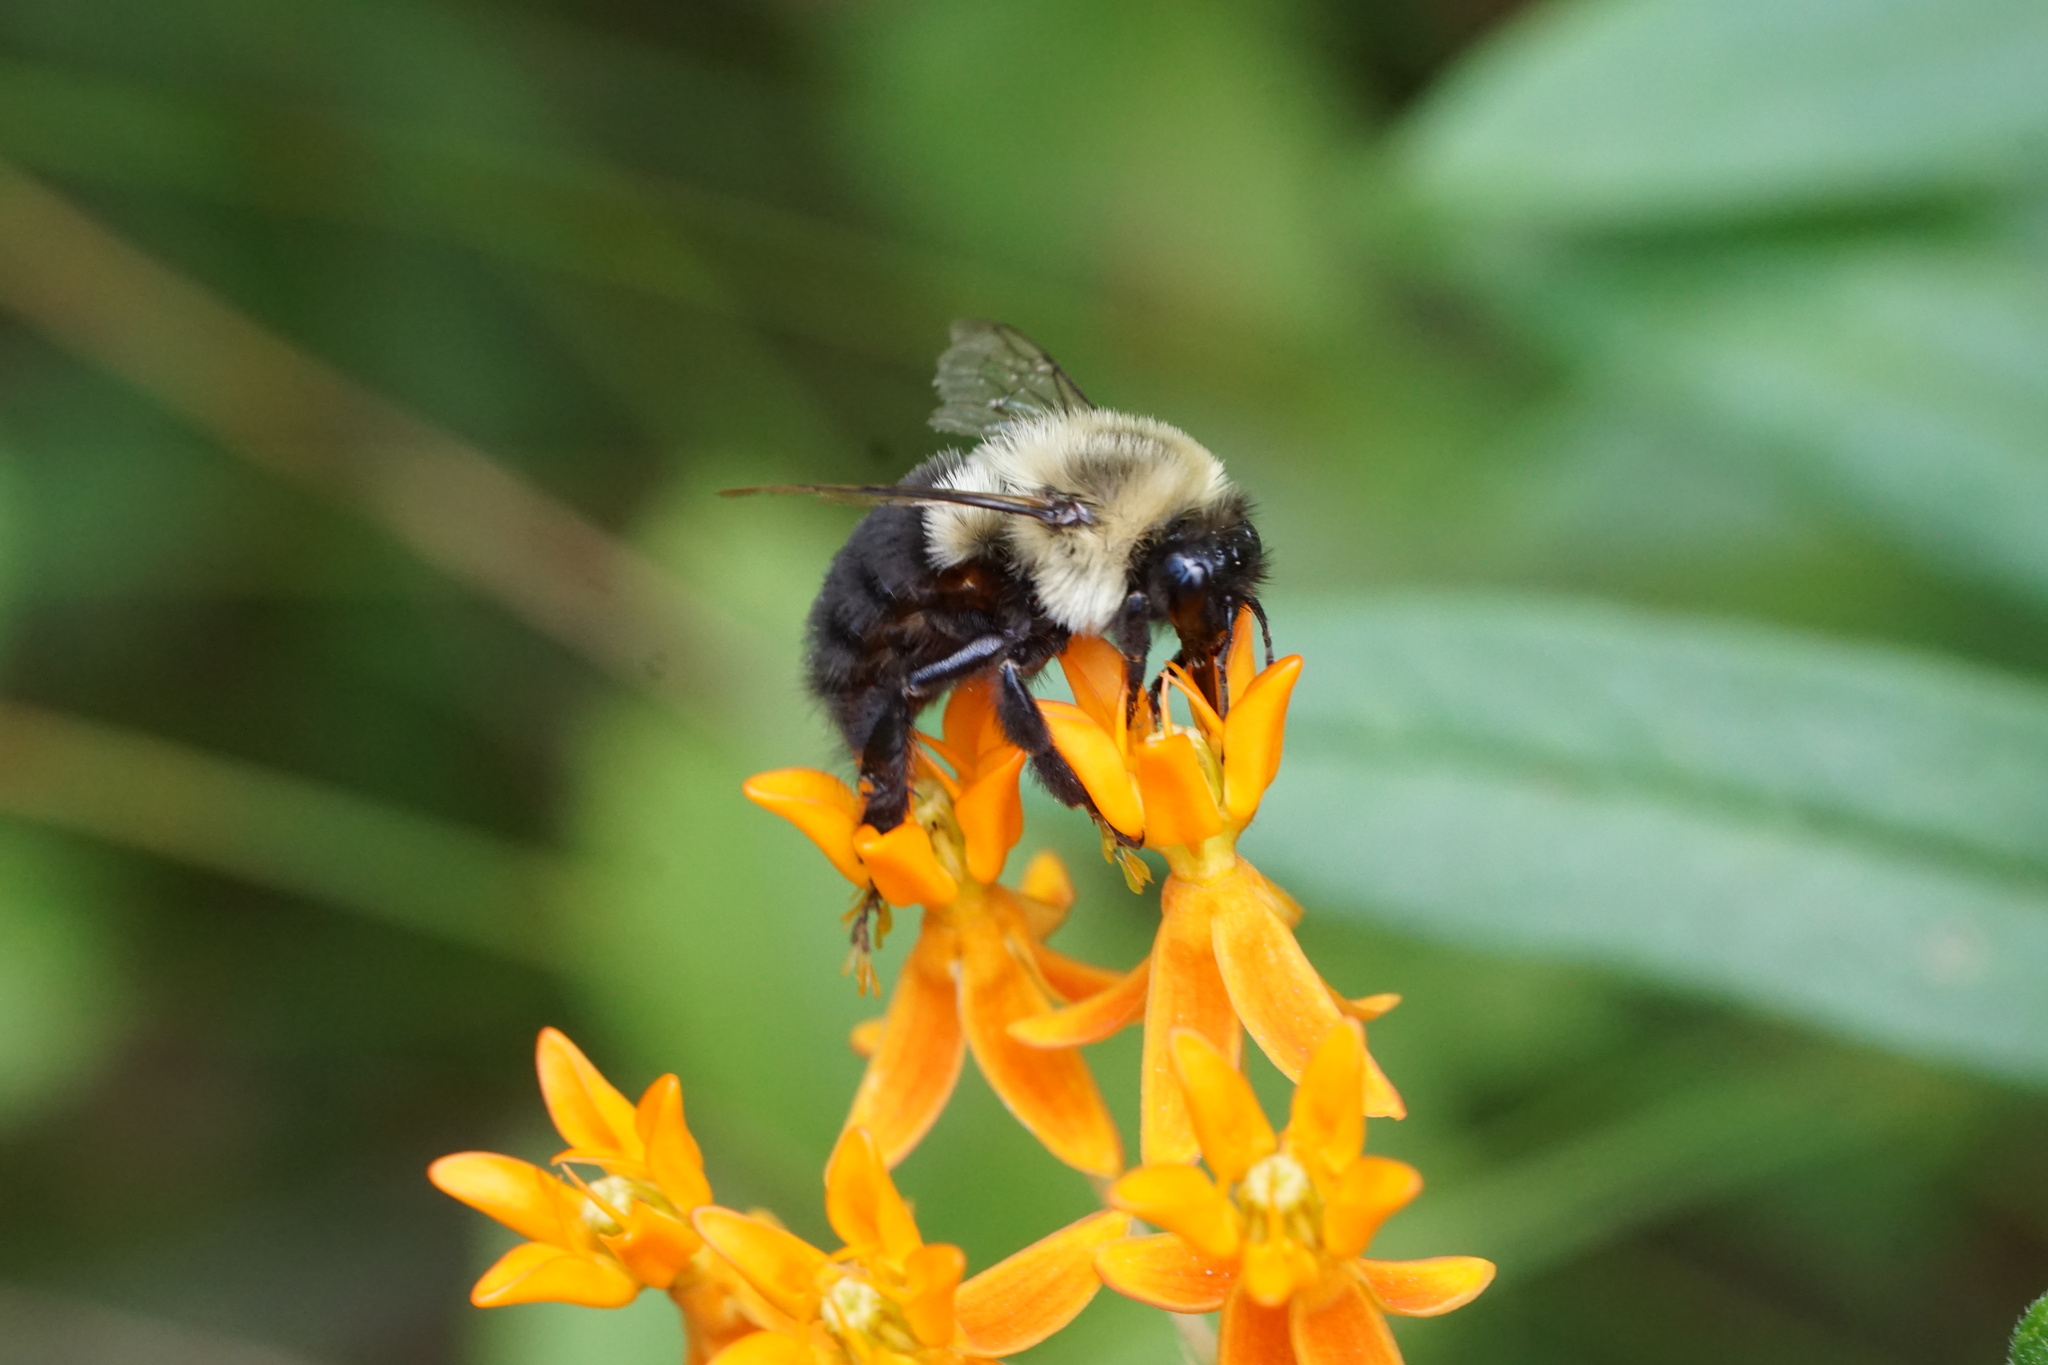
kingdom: Animalia
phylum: Arthropoda
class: Insecta
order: Hymenoptera
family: Apidae
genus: Bombus
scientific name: Bombus impatiens
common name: Common eastern bumble bee
